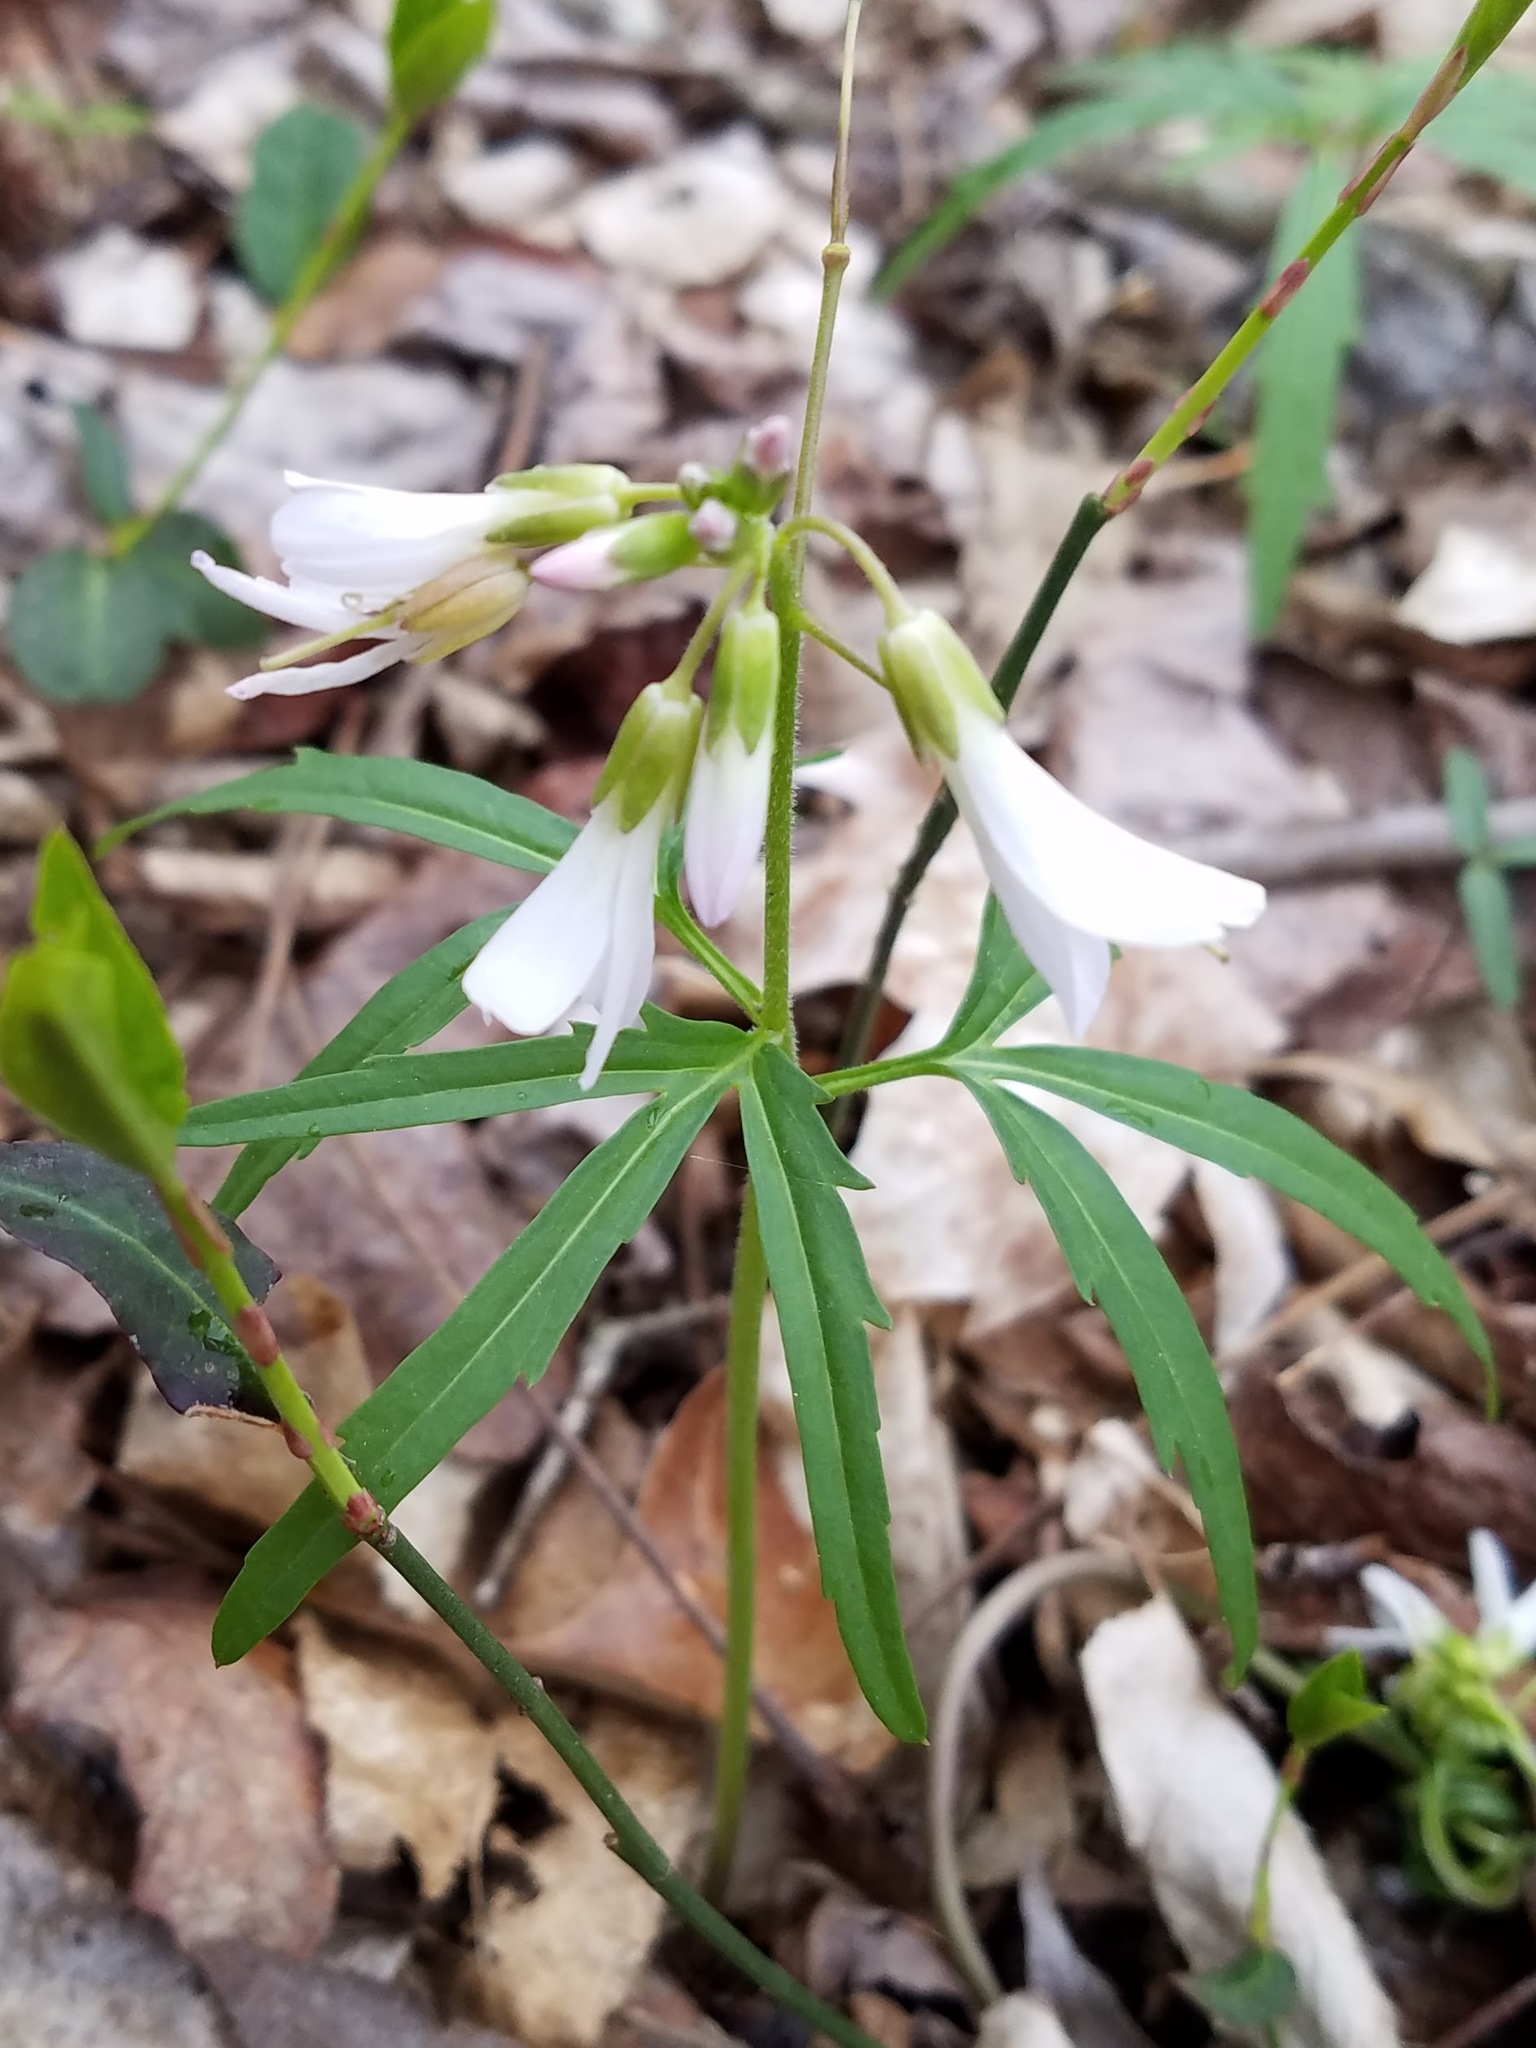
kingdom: Plantae
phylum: Tracheophyta
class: Magnoliopsida
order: Brassicales
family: Brassicaceae
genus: Cardamine
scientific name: Cardamine concatenata
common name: Cut-leaf toothcup
